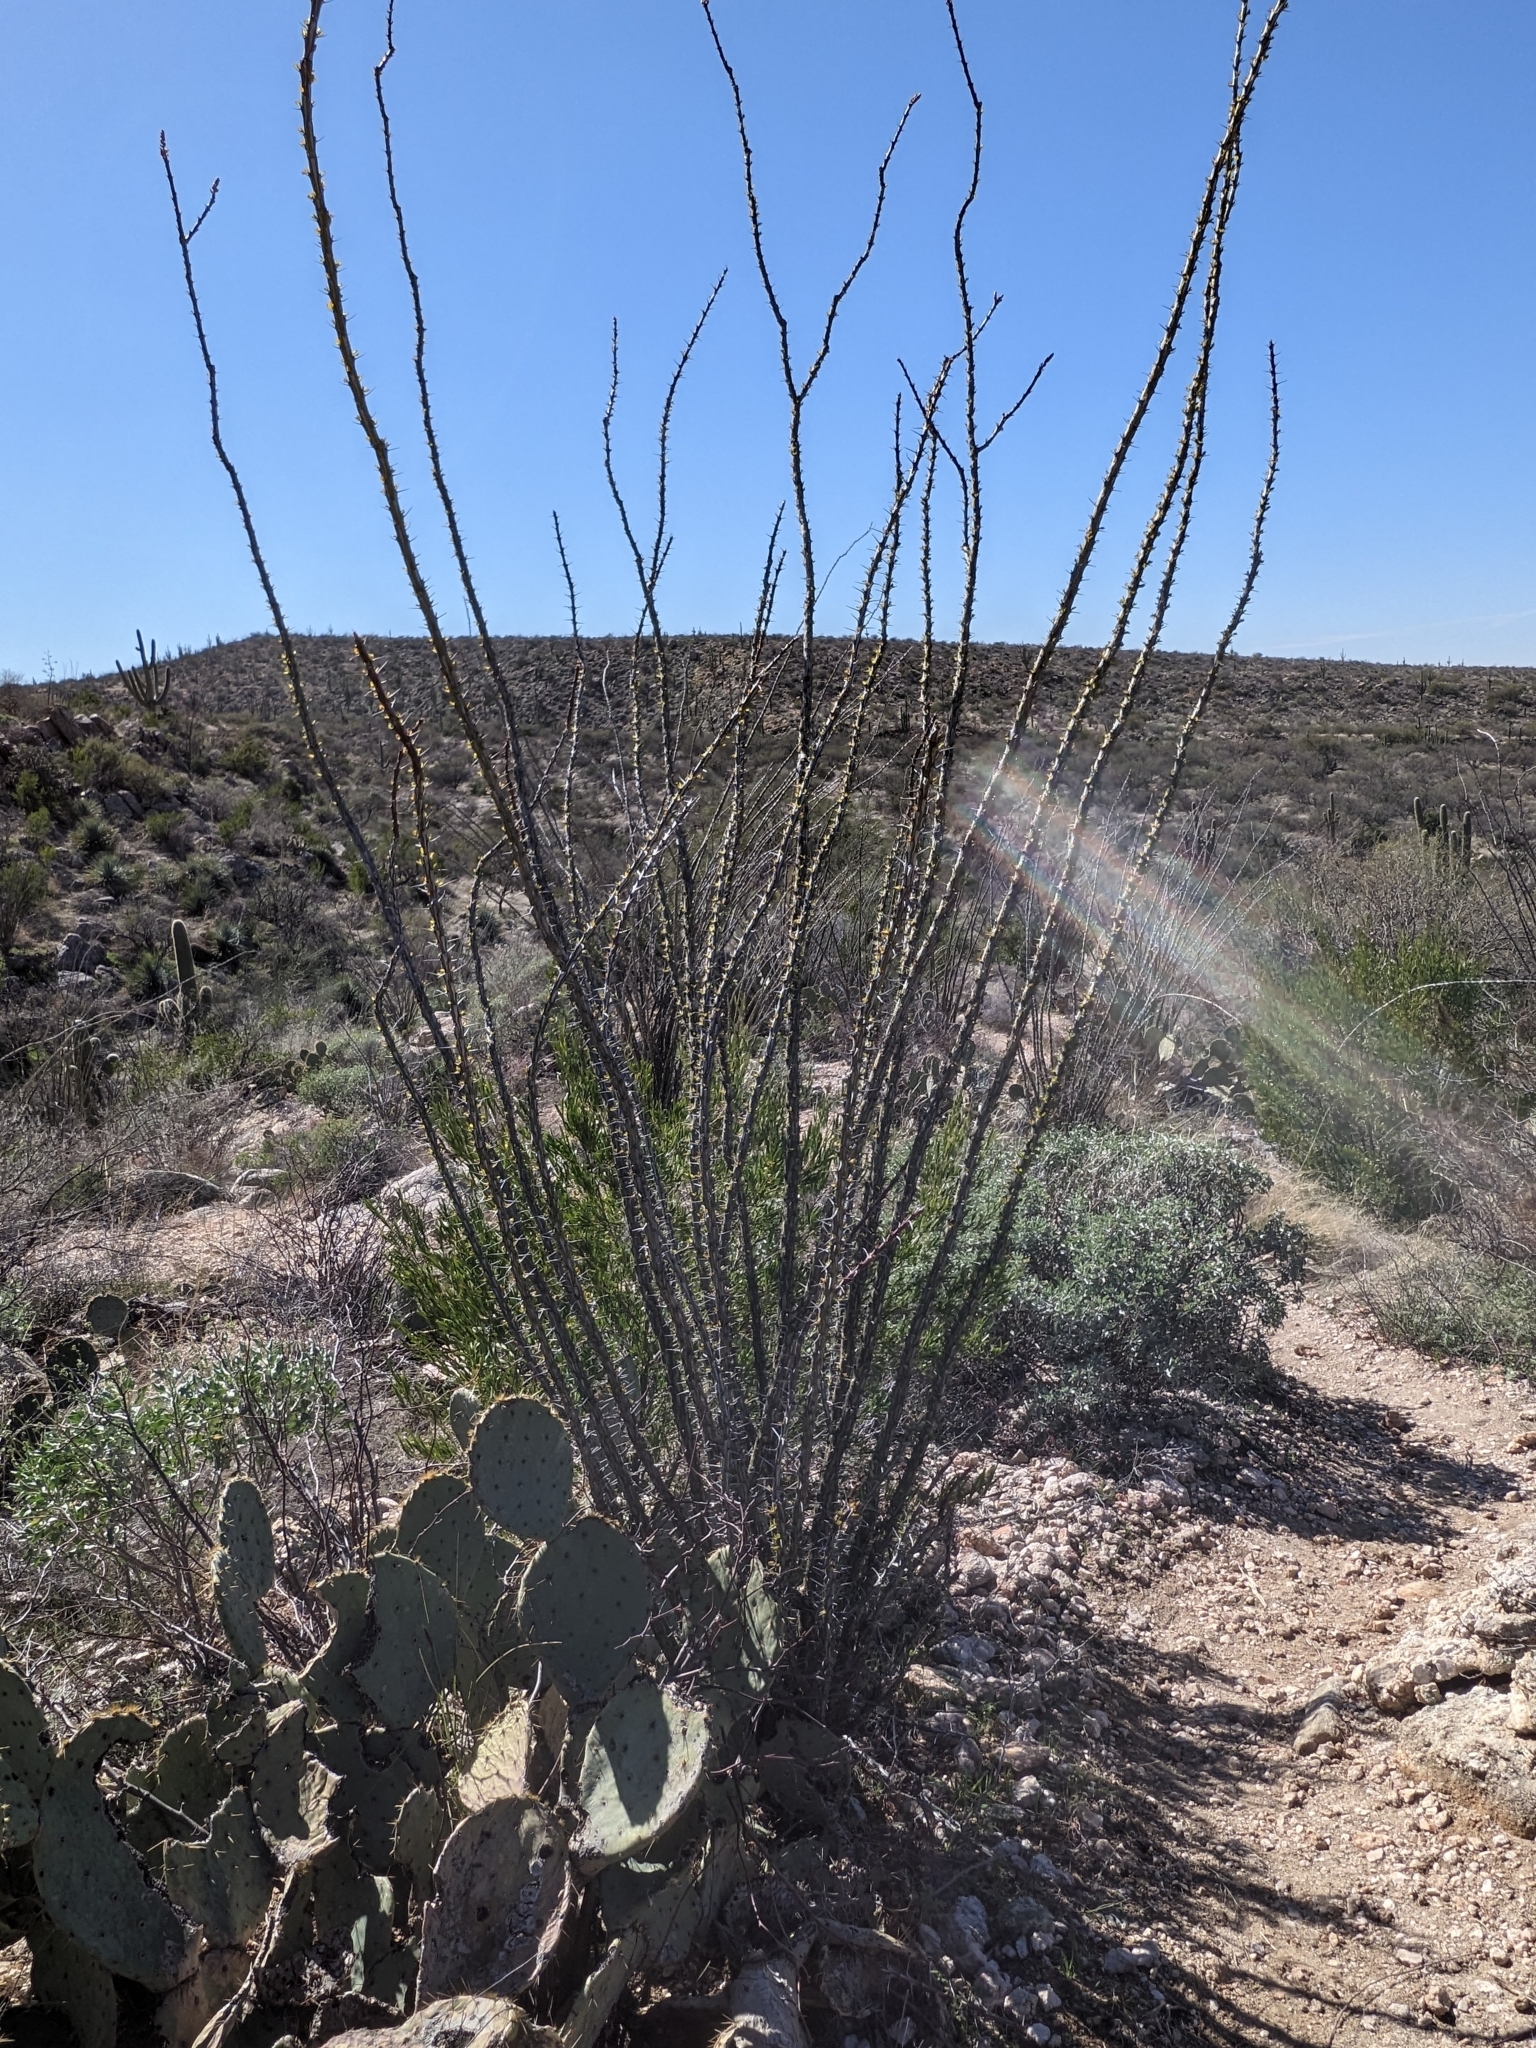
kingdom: Plantae
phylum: Tracheophyta
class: Magnoliopsida
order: Ericales
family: Fouquieriaceae
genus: Fouquieria
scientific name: Fouquieria splendens
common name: Vine-cactus
